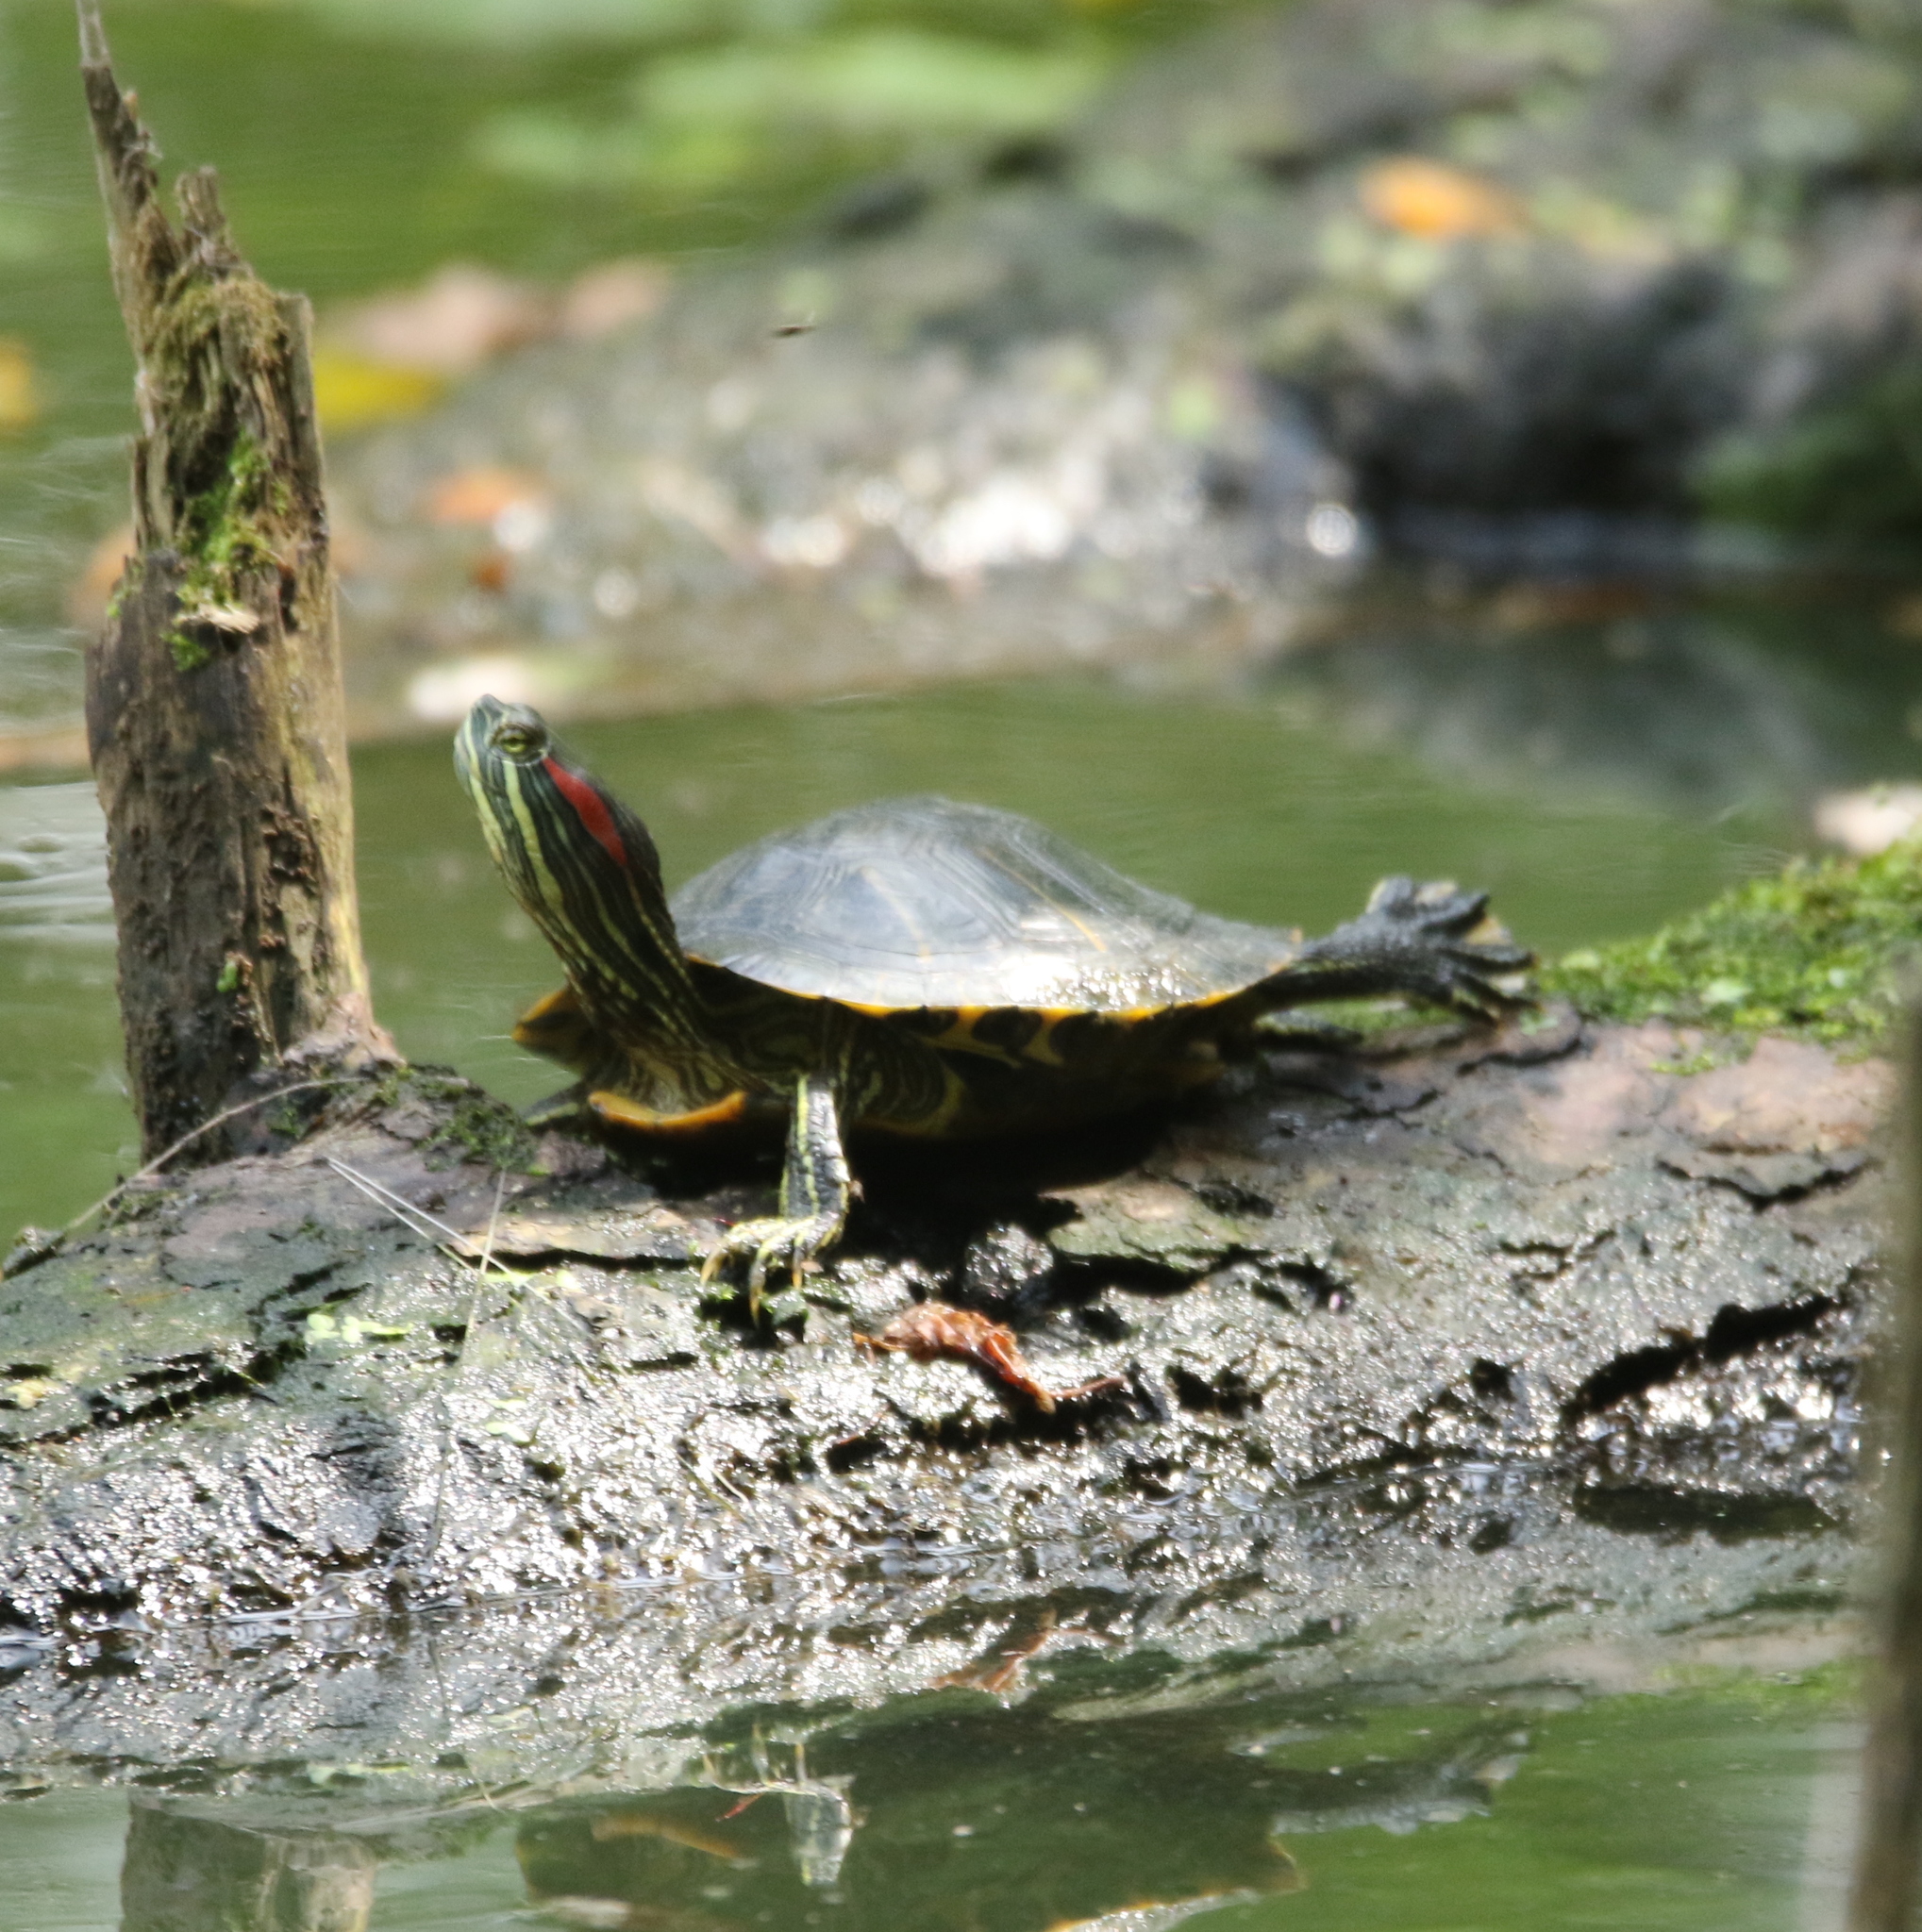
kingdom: Animalia
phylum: Chordata
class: Testudines
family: Emydidae
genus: Trachemys
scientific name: Trachemys scripta
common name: Slider
